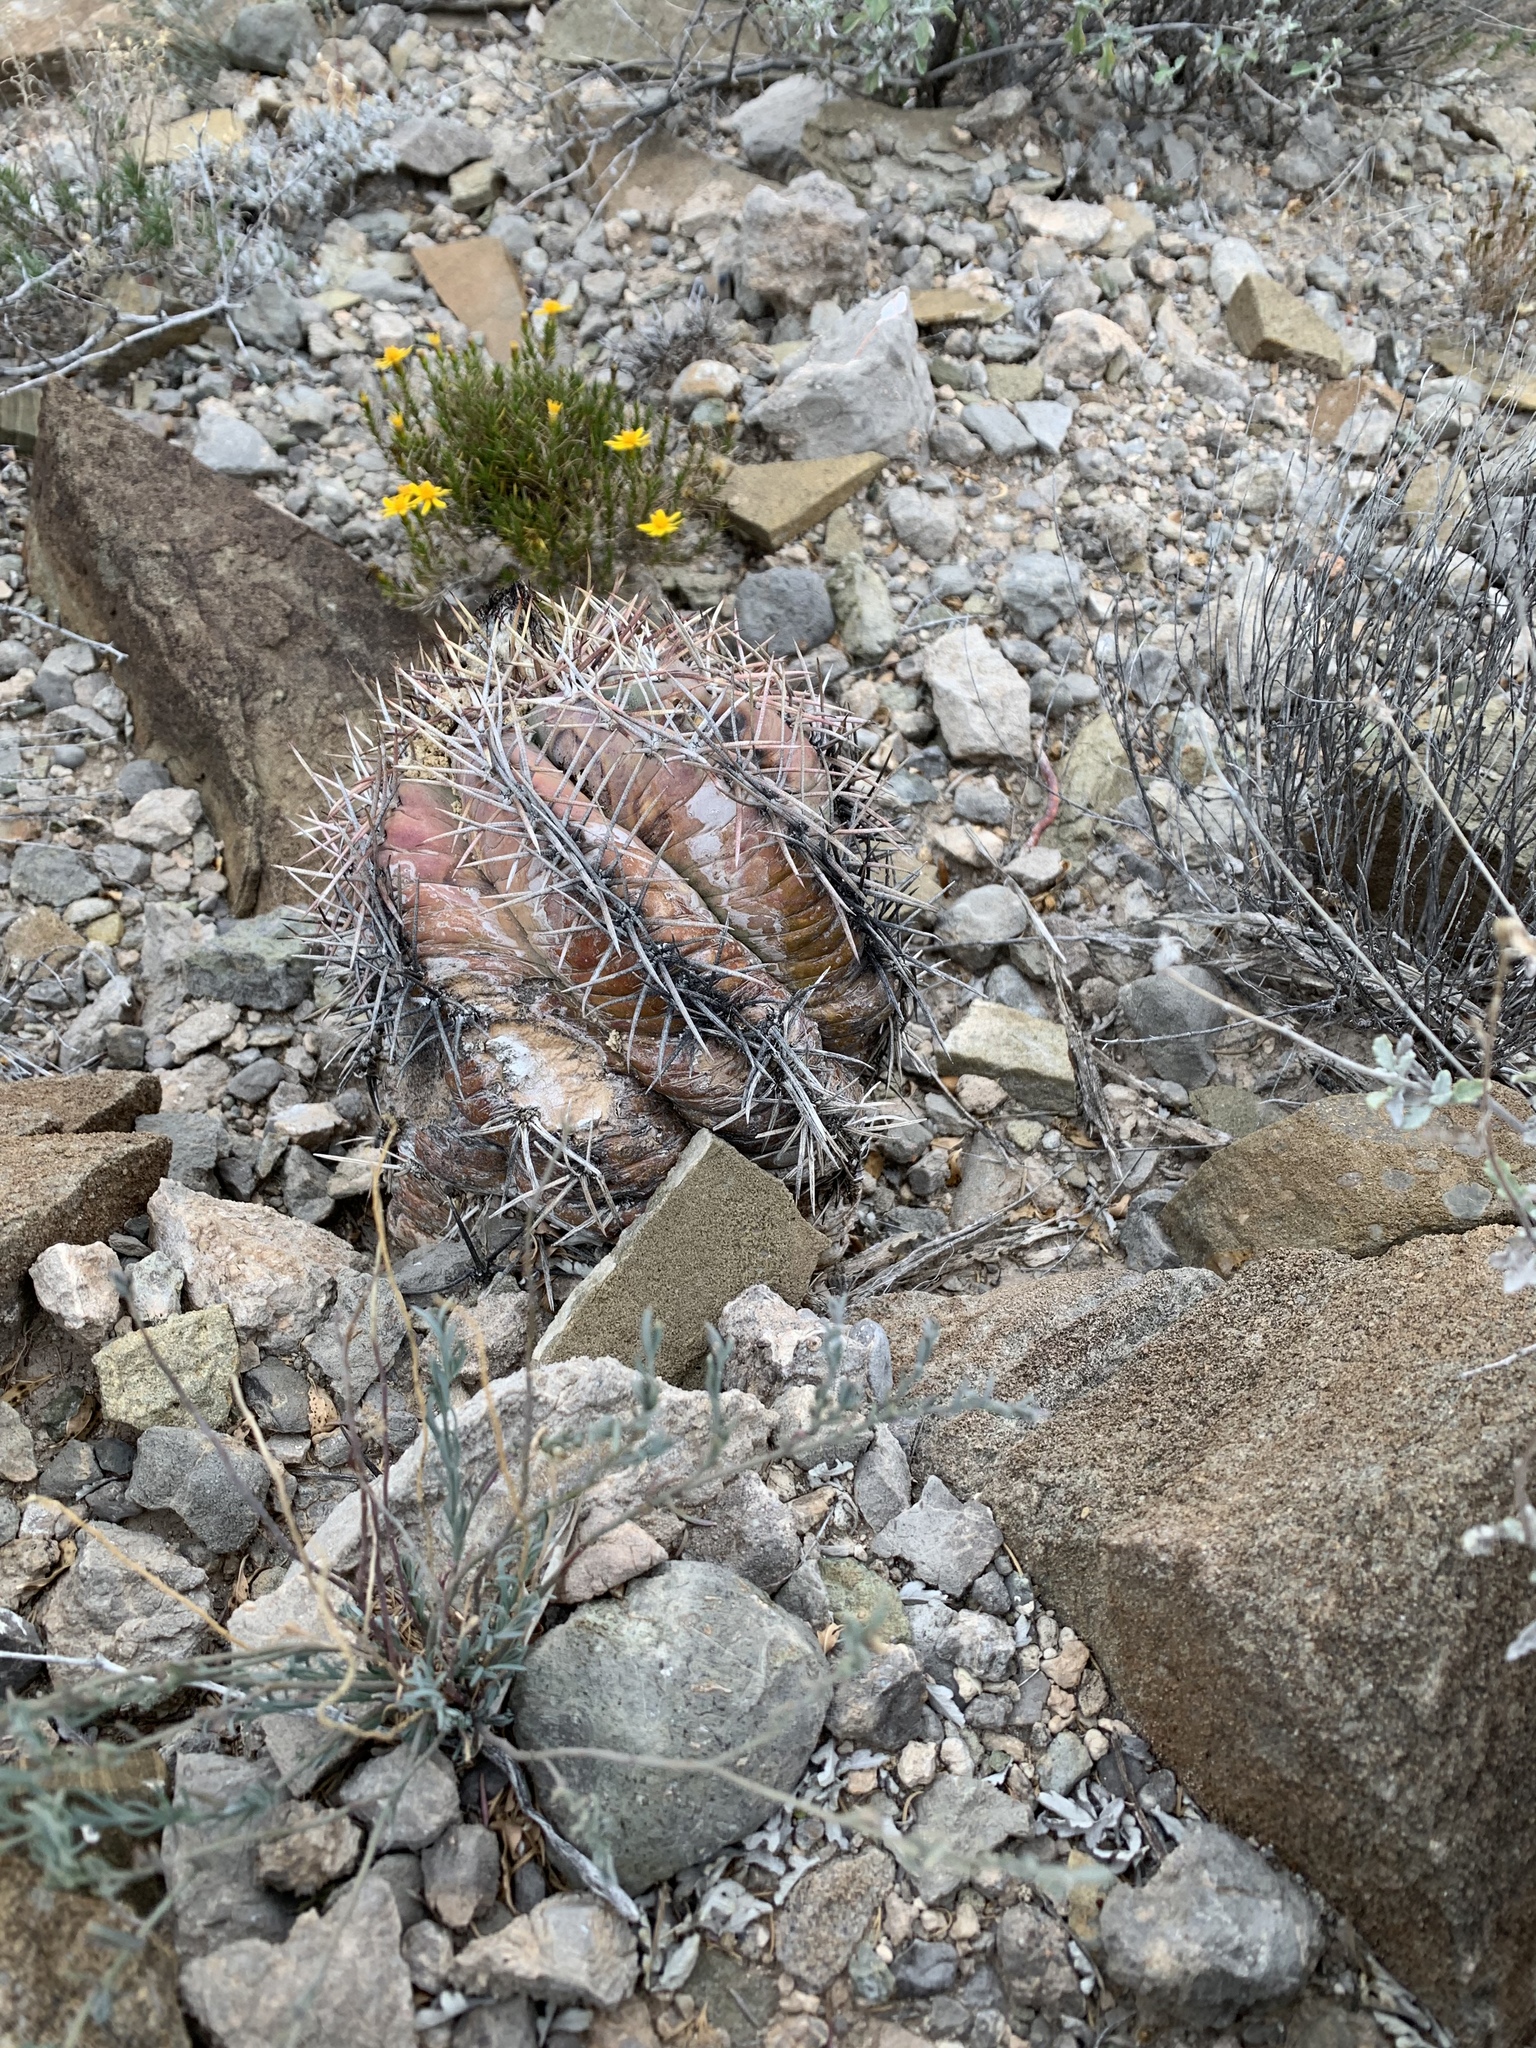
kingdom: Plantae
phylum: Tracheophyta
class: Magnoliopsida
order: Caryophyllales
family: Cactaceae
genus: Echinocactus
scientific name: Echinocactus horizonthalonius
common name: Devilshead
